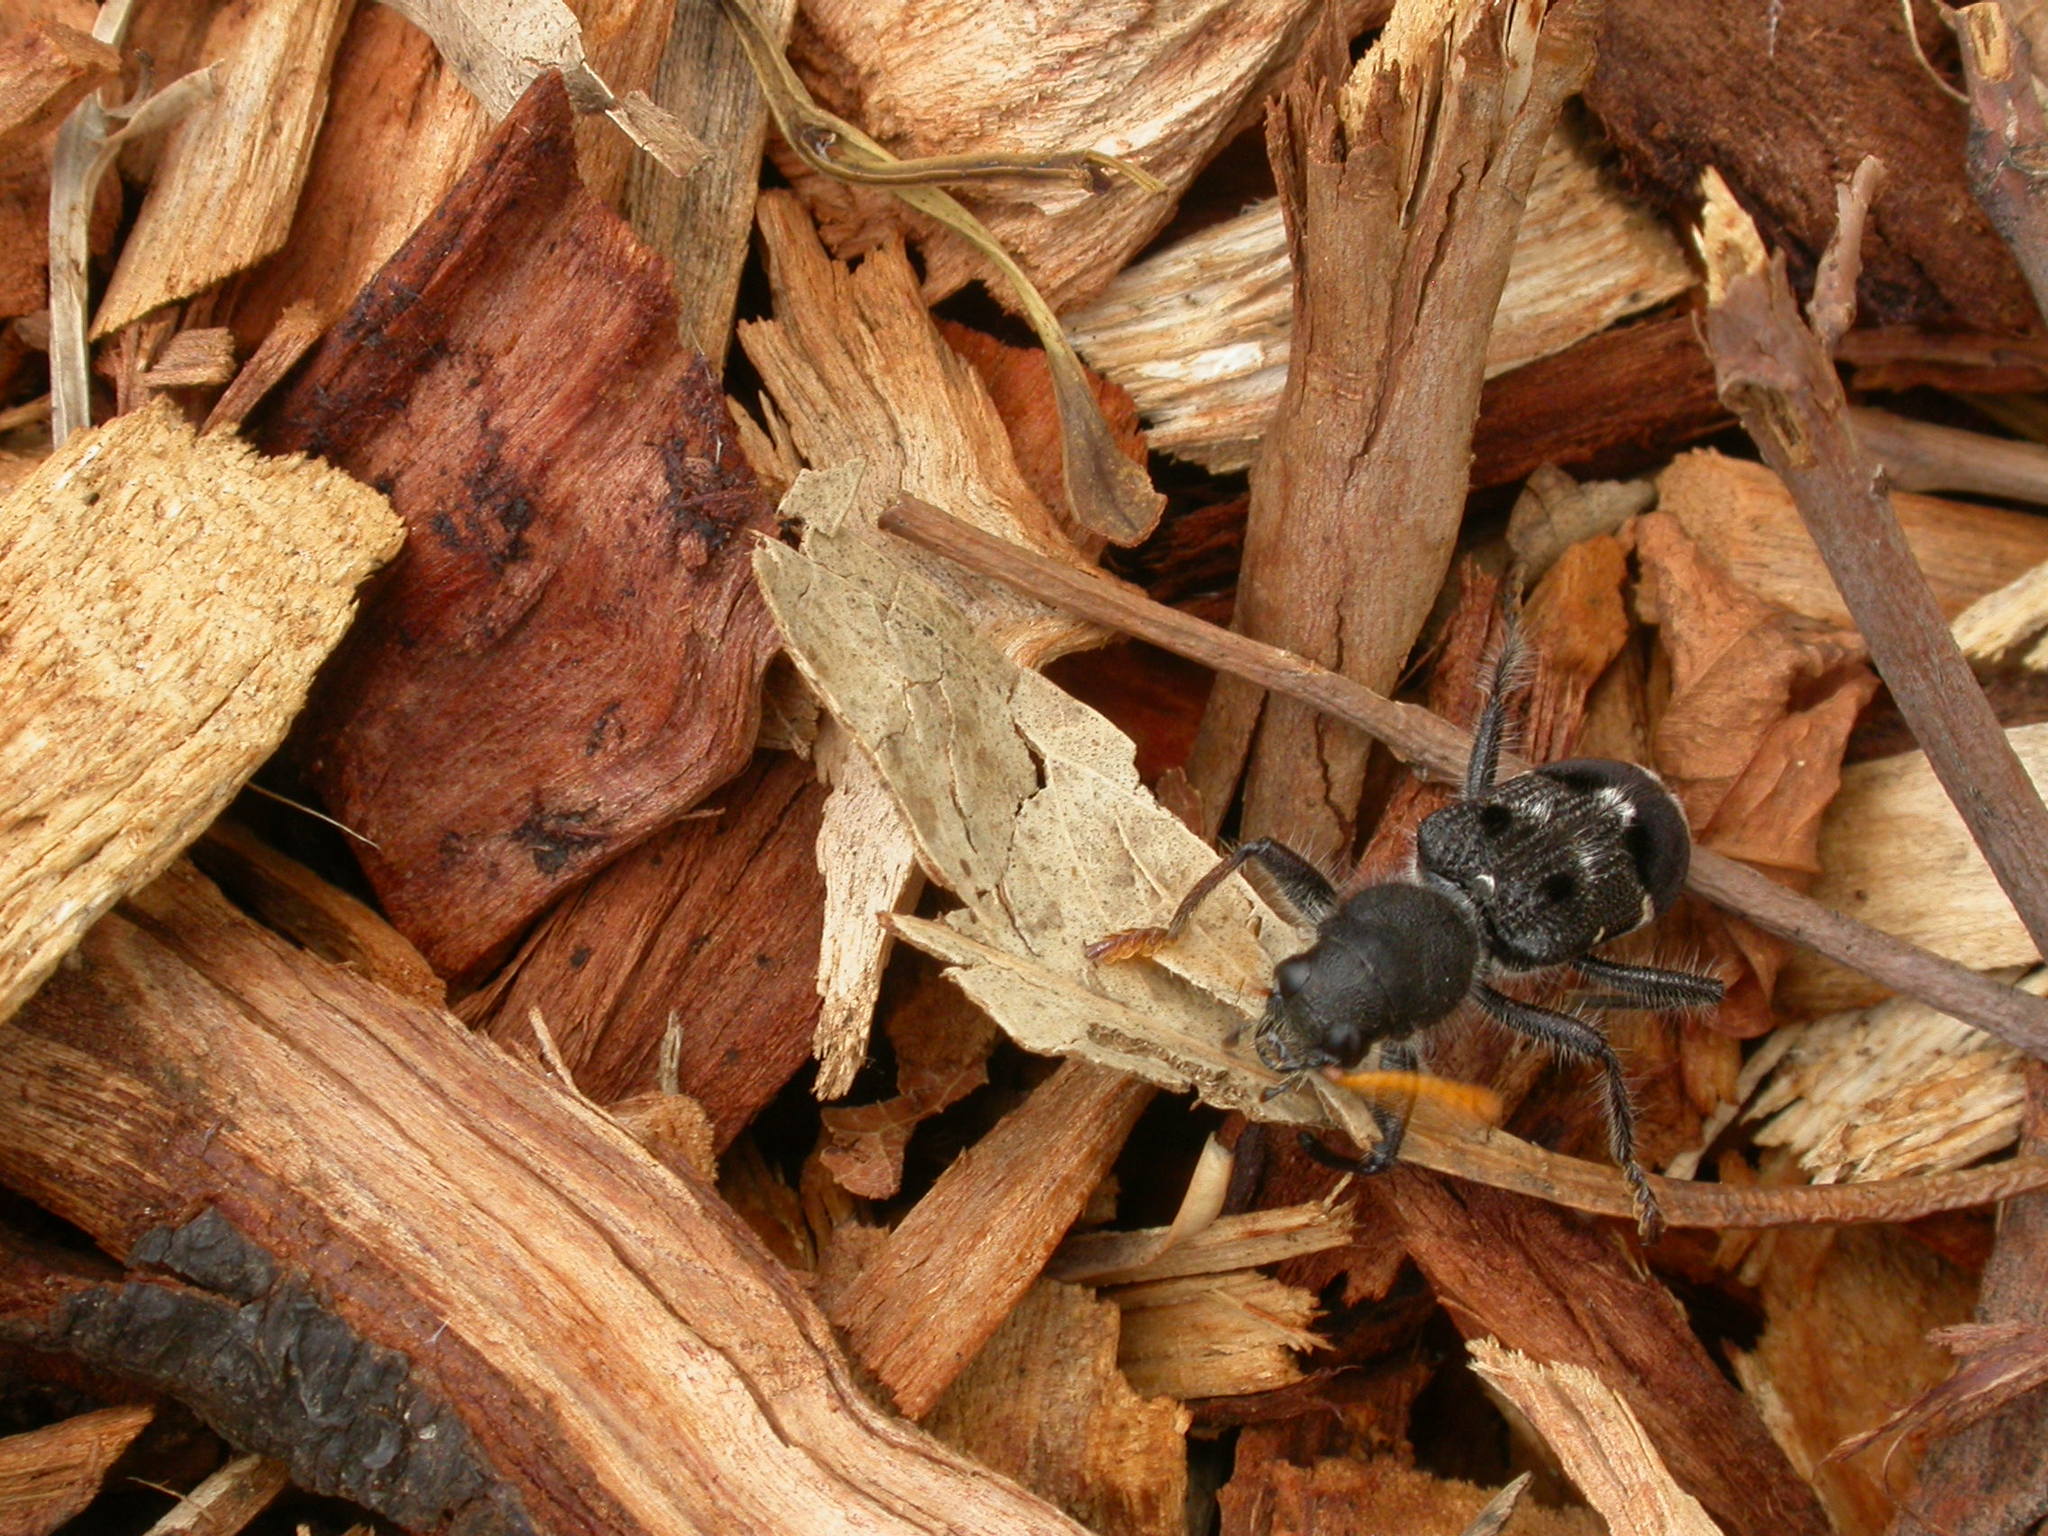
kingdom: Animalia
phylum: Arthropoda
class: Insecta
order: Coleoptera
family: Cleridae
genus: Trogodendron
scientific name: Trogodendron fasiculatum
